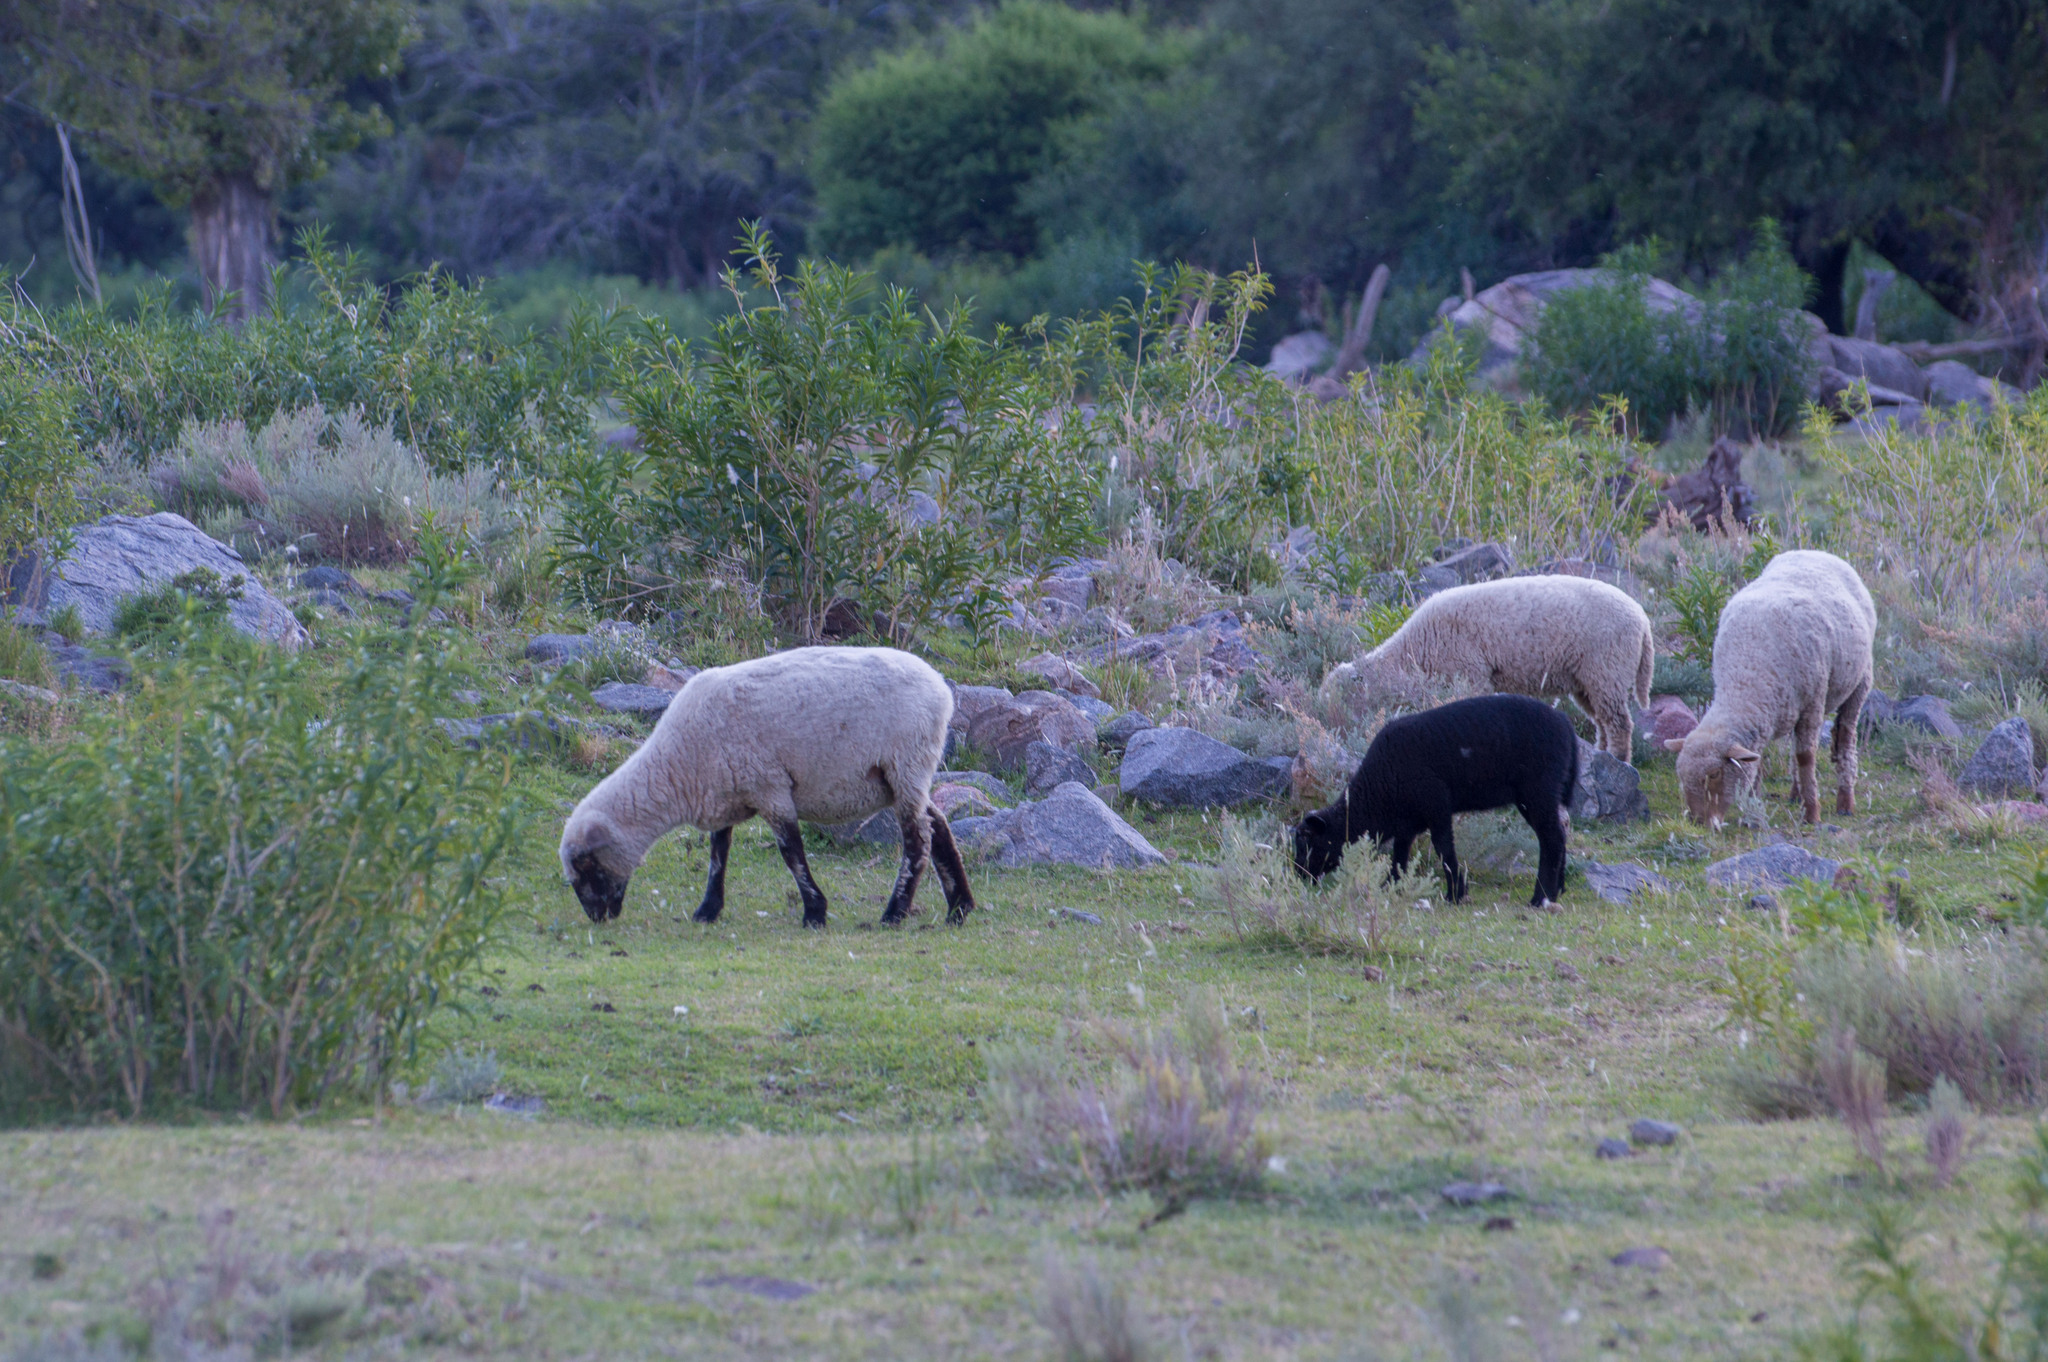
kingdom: Animalia
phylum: Chordata
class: Mammalia
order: Artiodactyla
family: Bovidae
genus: Ovis
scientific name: Ovis aries
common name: Domestic sheep
